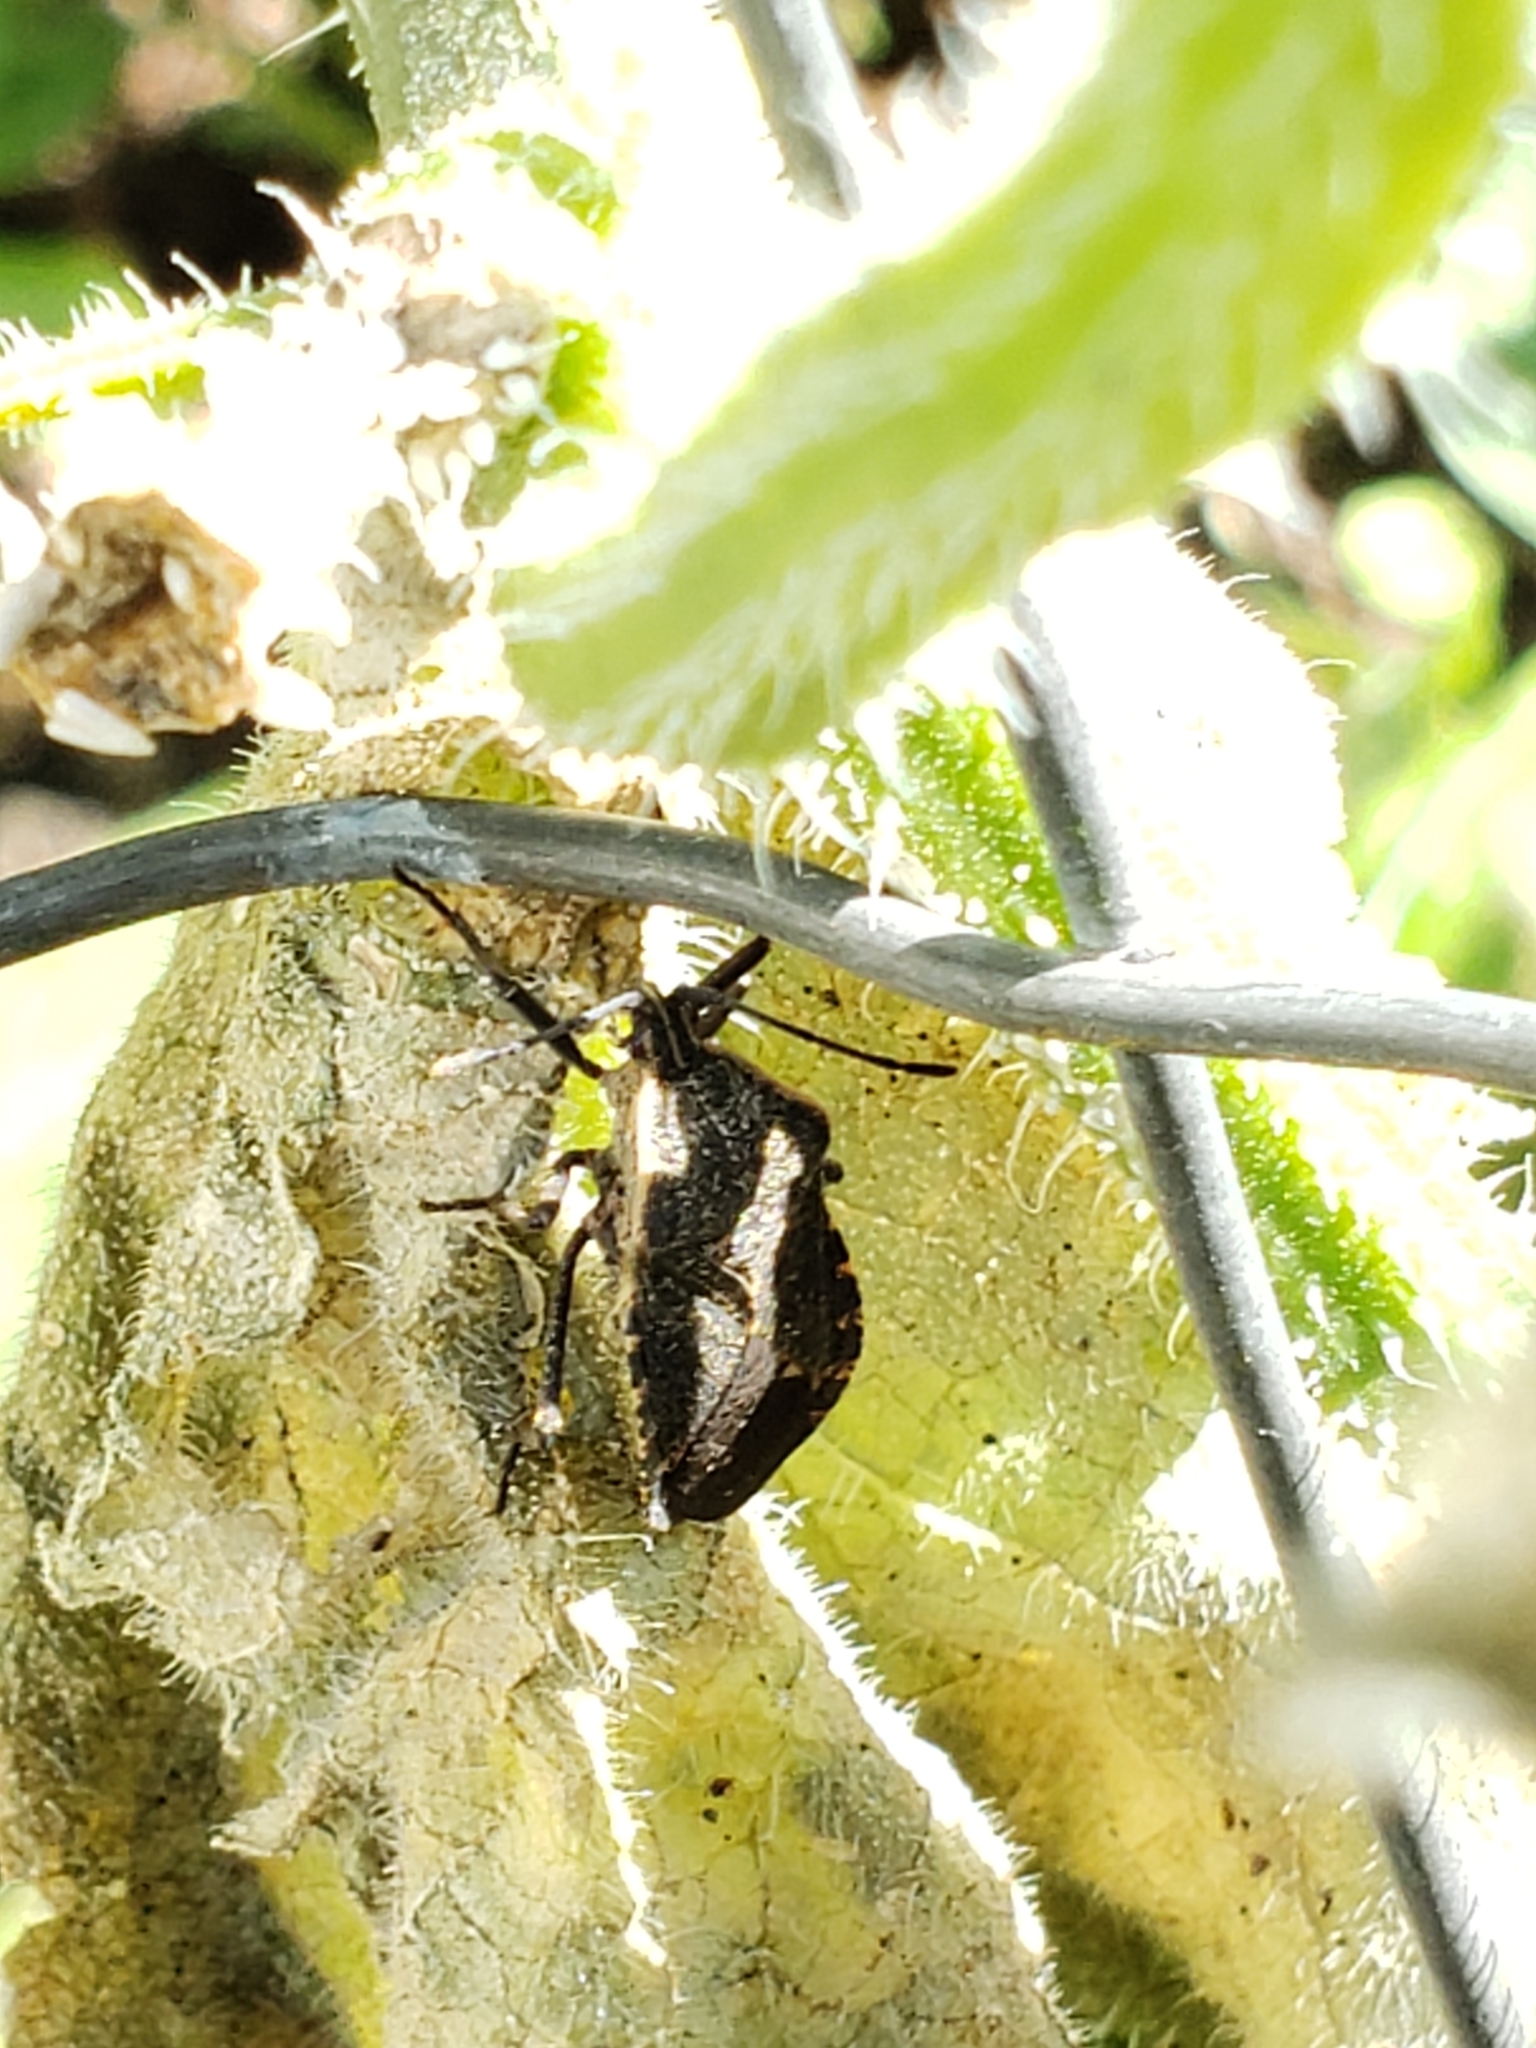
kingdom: Animalia
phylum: Arthropoda
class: Insecta
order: Hemiptera
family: Coreidae
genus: Anasa
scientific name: Anasa tristis
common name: Squash bug
